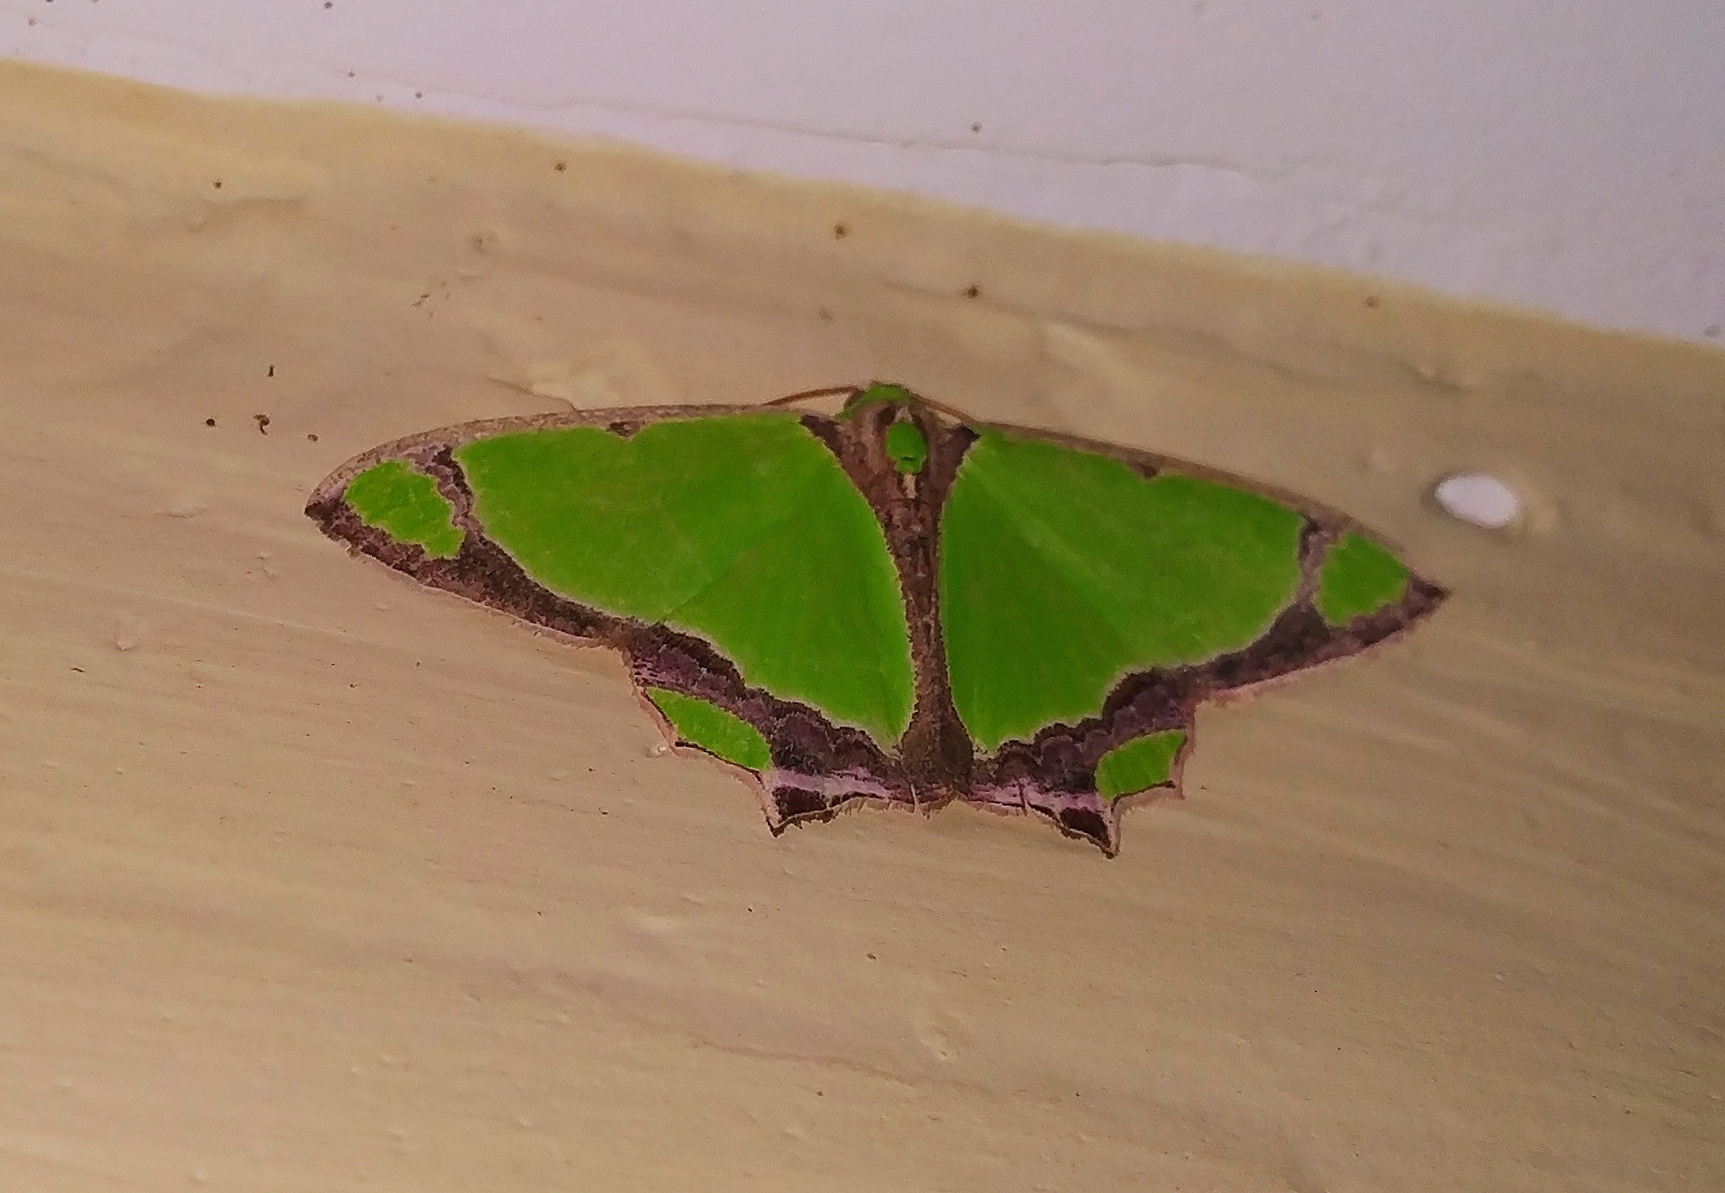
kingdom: Animalia
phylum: Arthropoda
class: Insecta
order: Lepidoptera
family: Geometridae
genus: Agathia
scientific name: Agathia laetata
